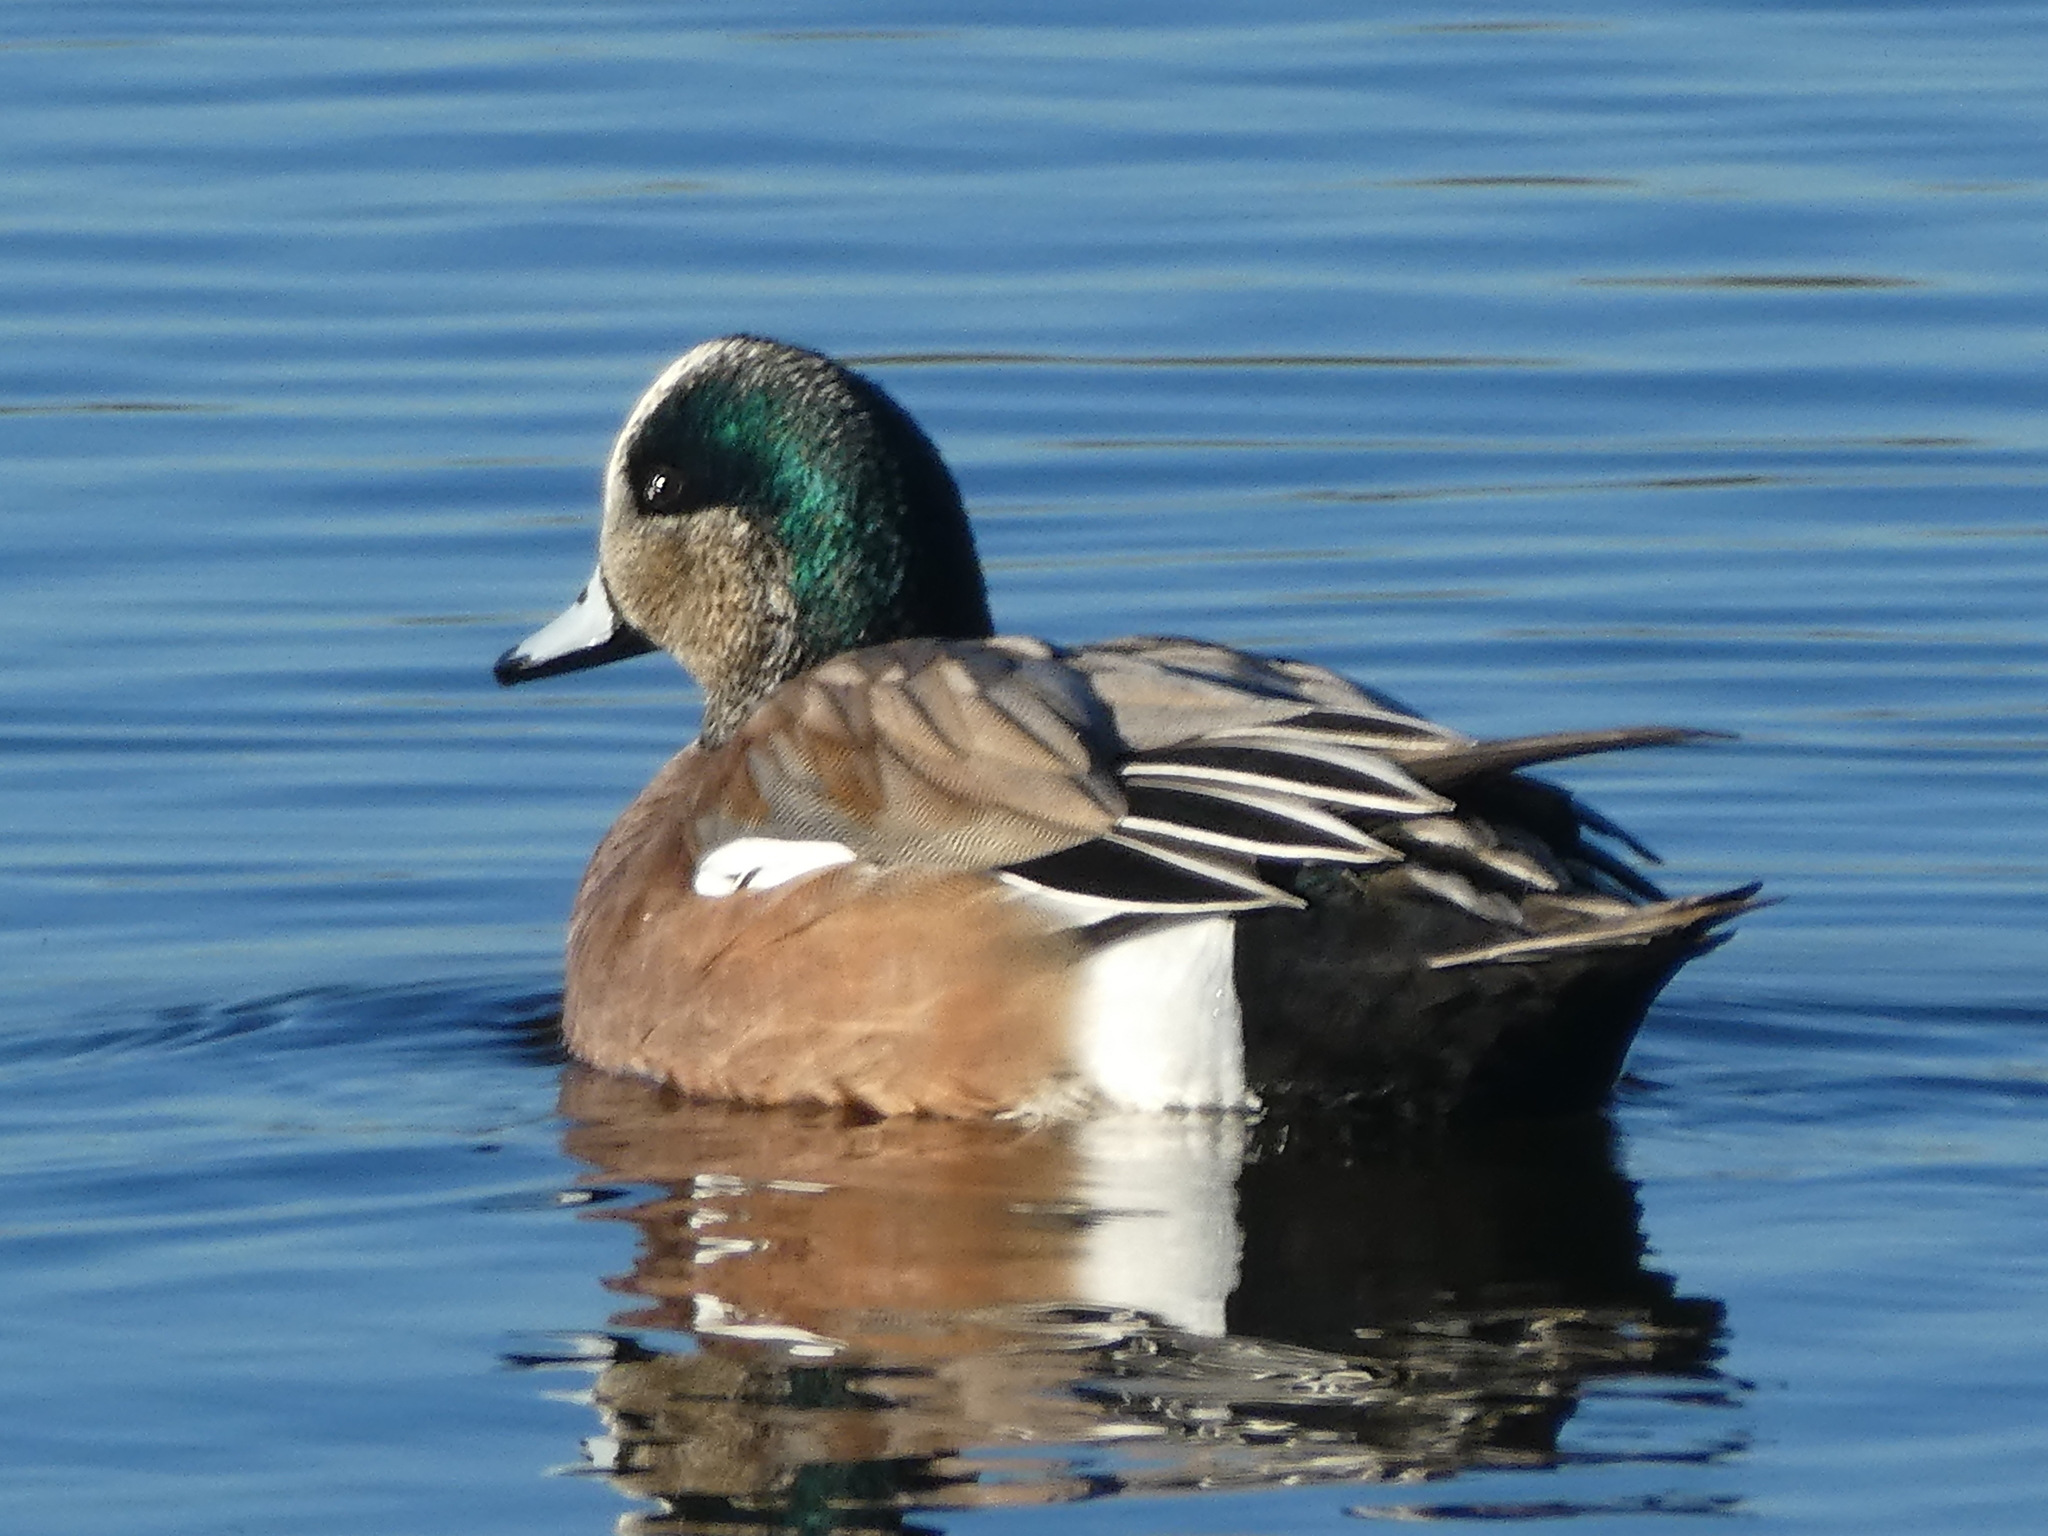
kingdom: Animalia
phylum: Chordata
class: Aves
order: Anseriformes
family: Anatidae
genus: Mareca
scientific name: Mareca americana
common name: American wigeon
